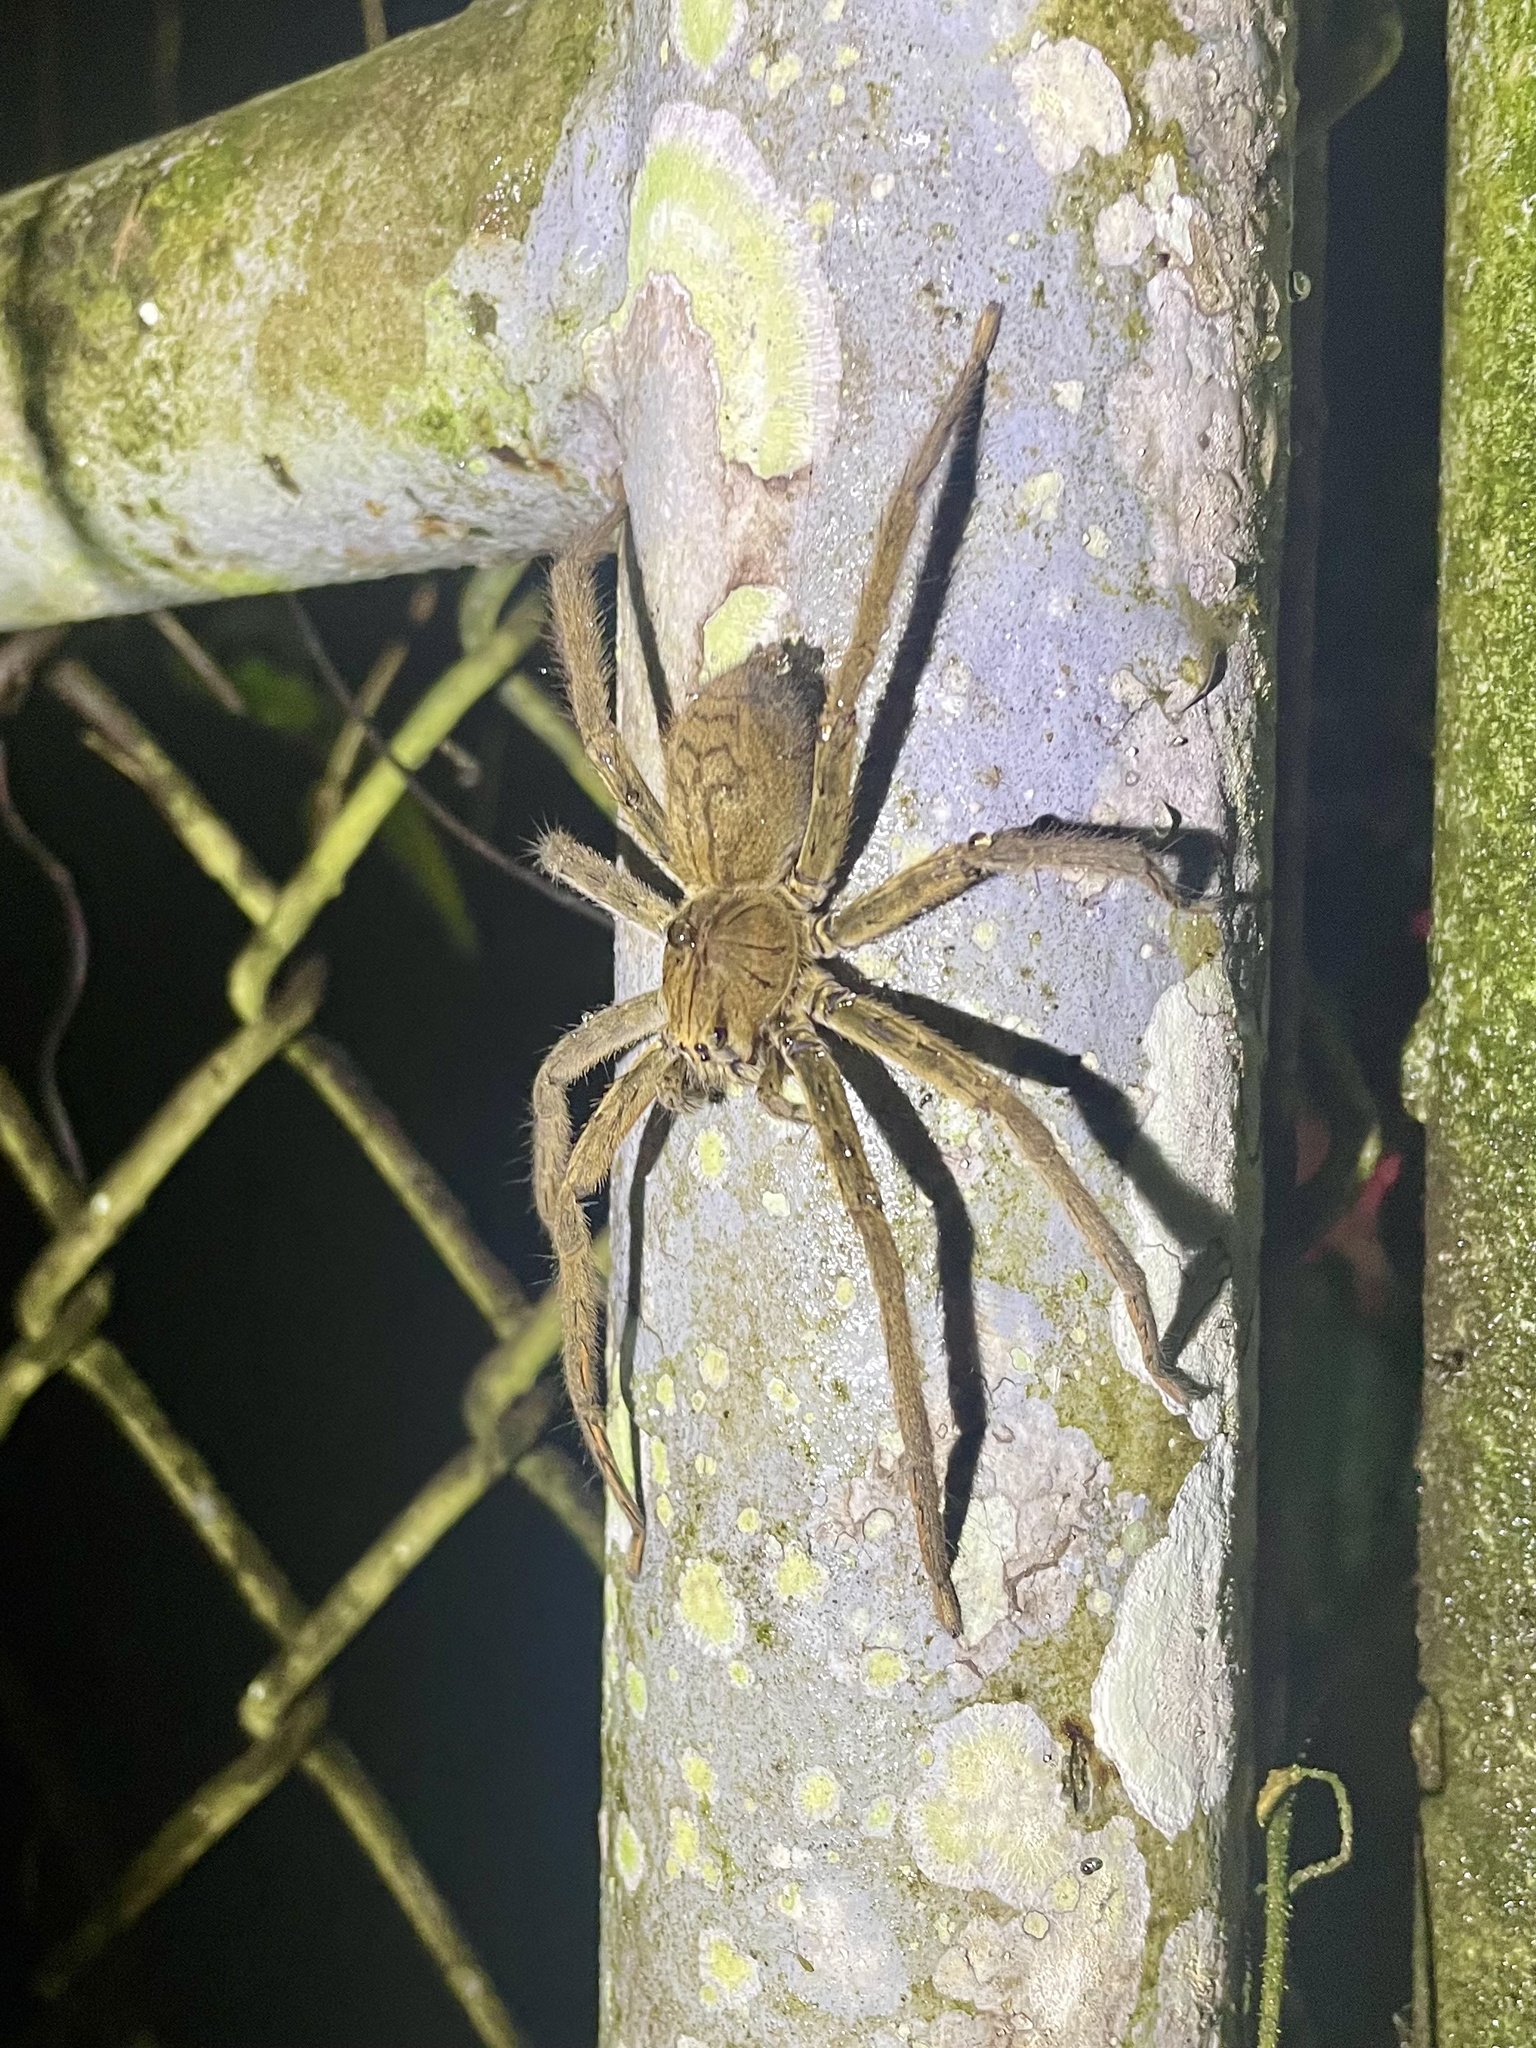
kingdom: Animalia
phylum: Arthropoda
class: Arachnida
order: Araneae
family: Trechaleidae
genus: Cupiennius
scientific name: Cupiennius coccineus
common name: Wandering spiders
